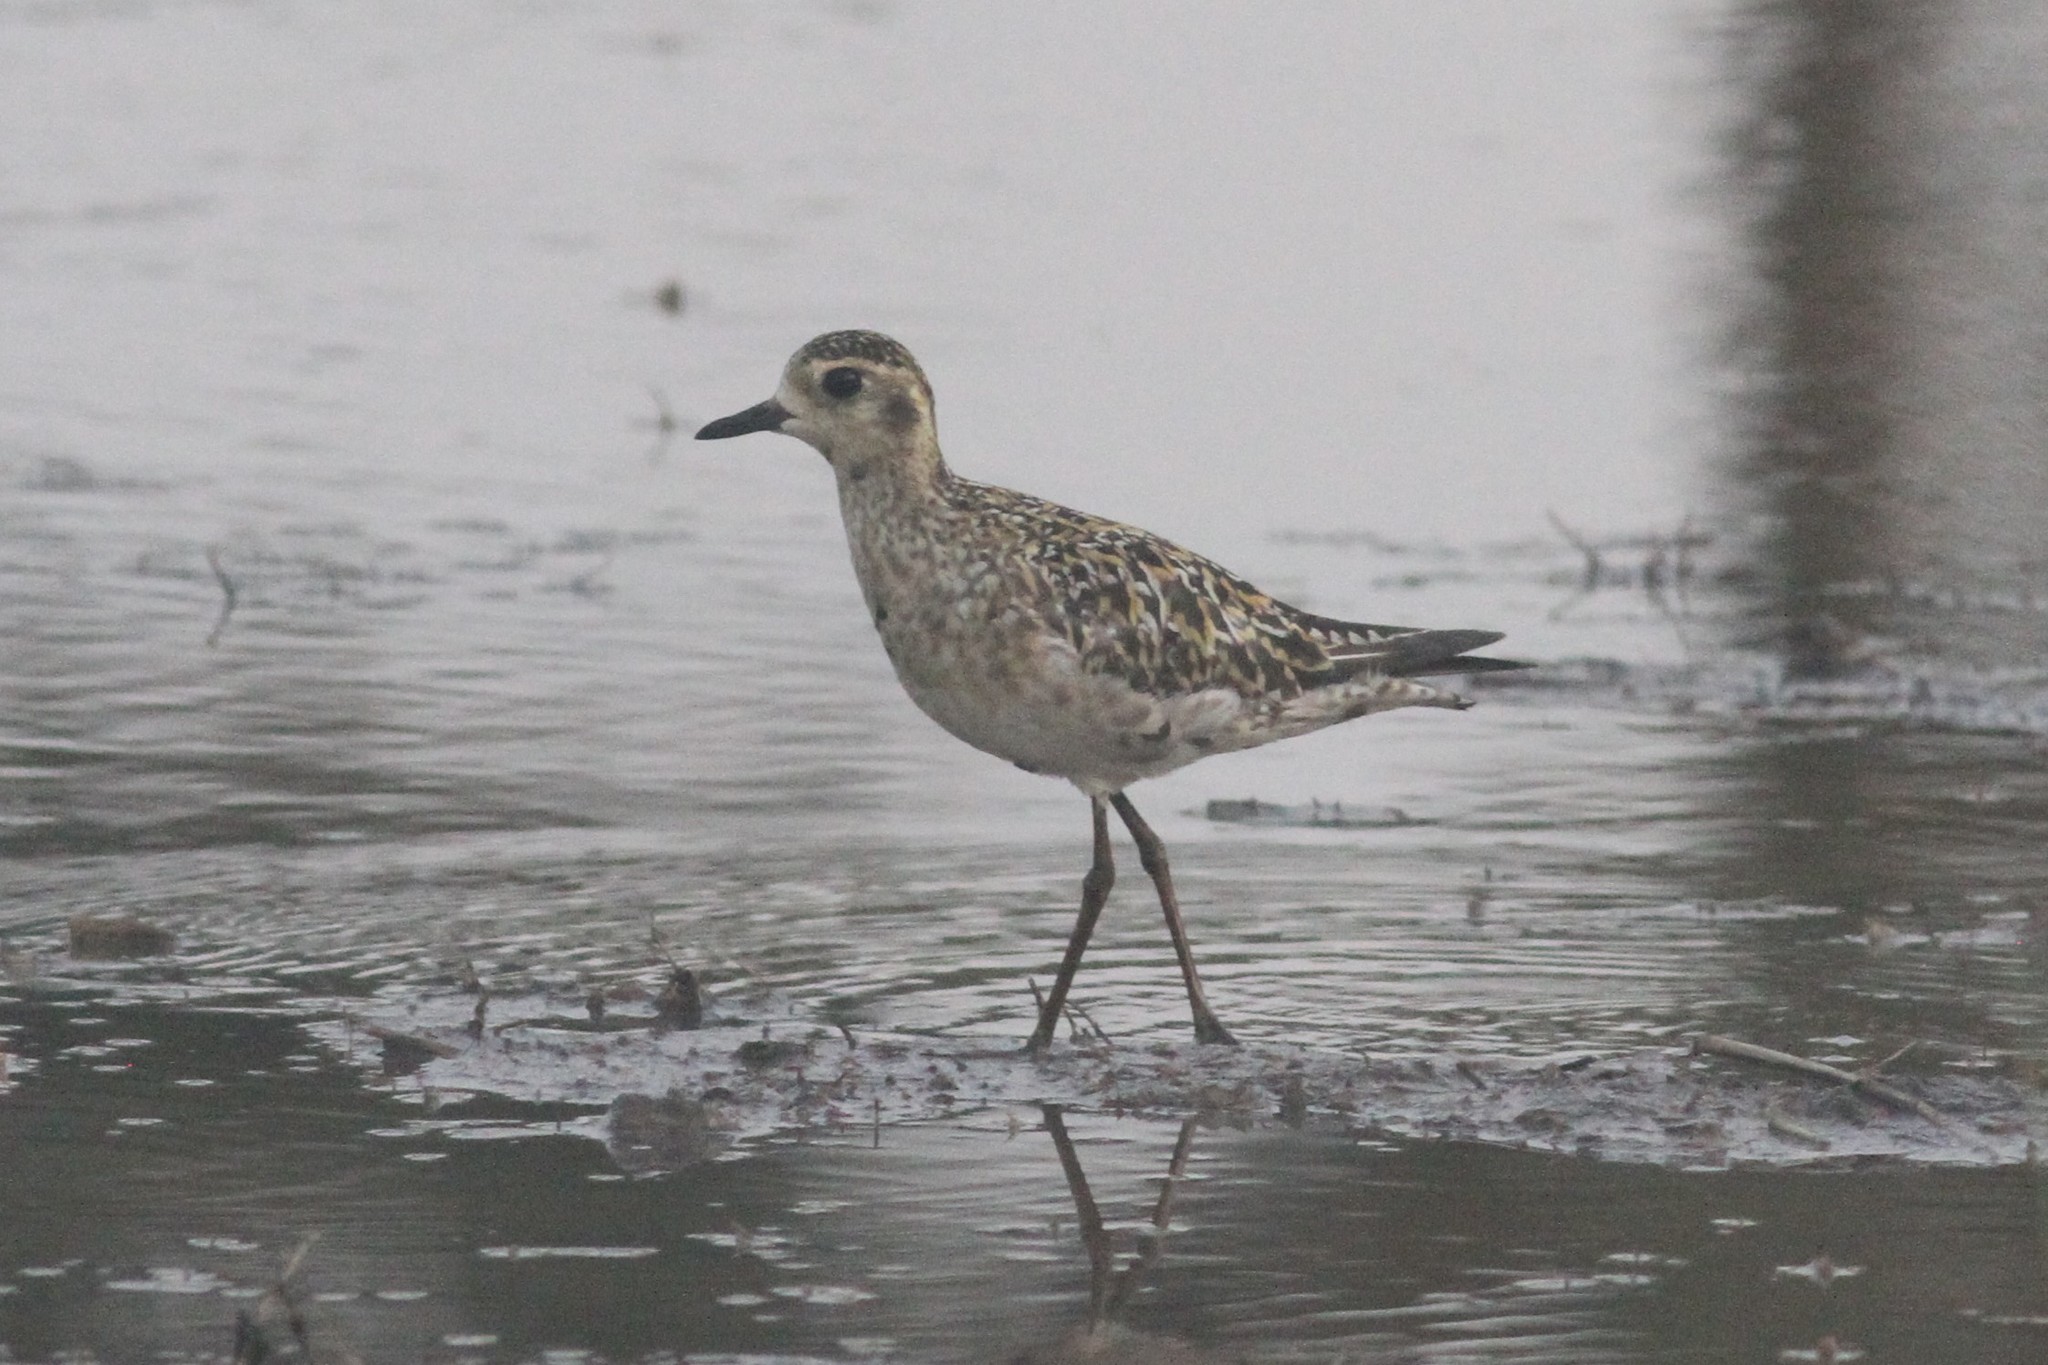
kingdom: Animalia
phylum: Chordata
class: Aves
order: Charadriiformes
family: Charadriidae
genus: Pluvialis
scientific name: Pluvialis fulva
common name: Pacific golden plover
